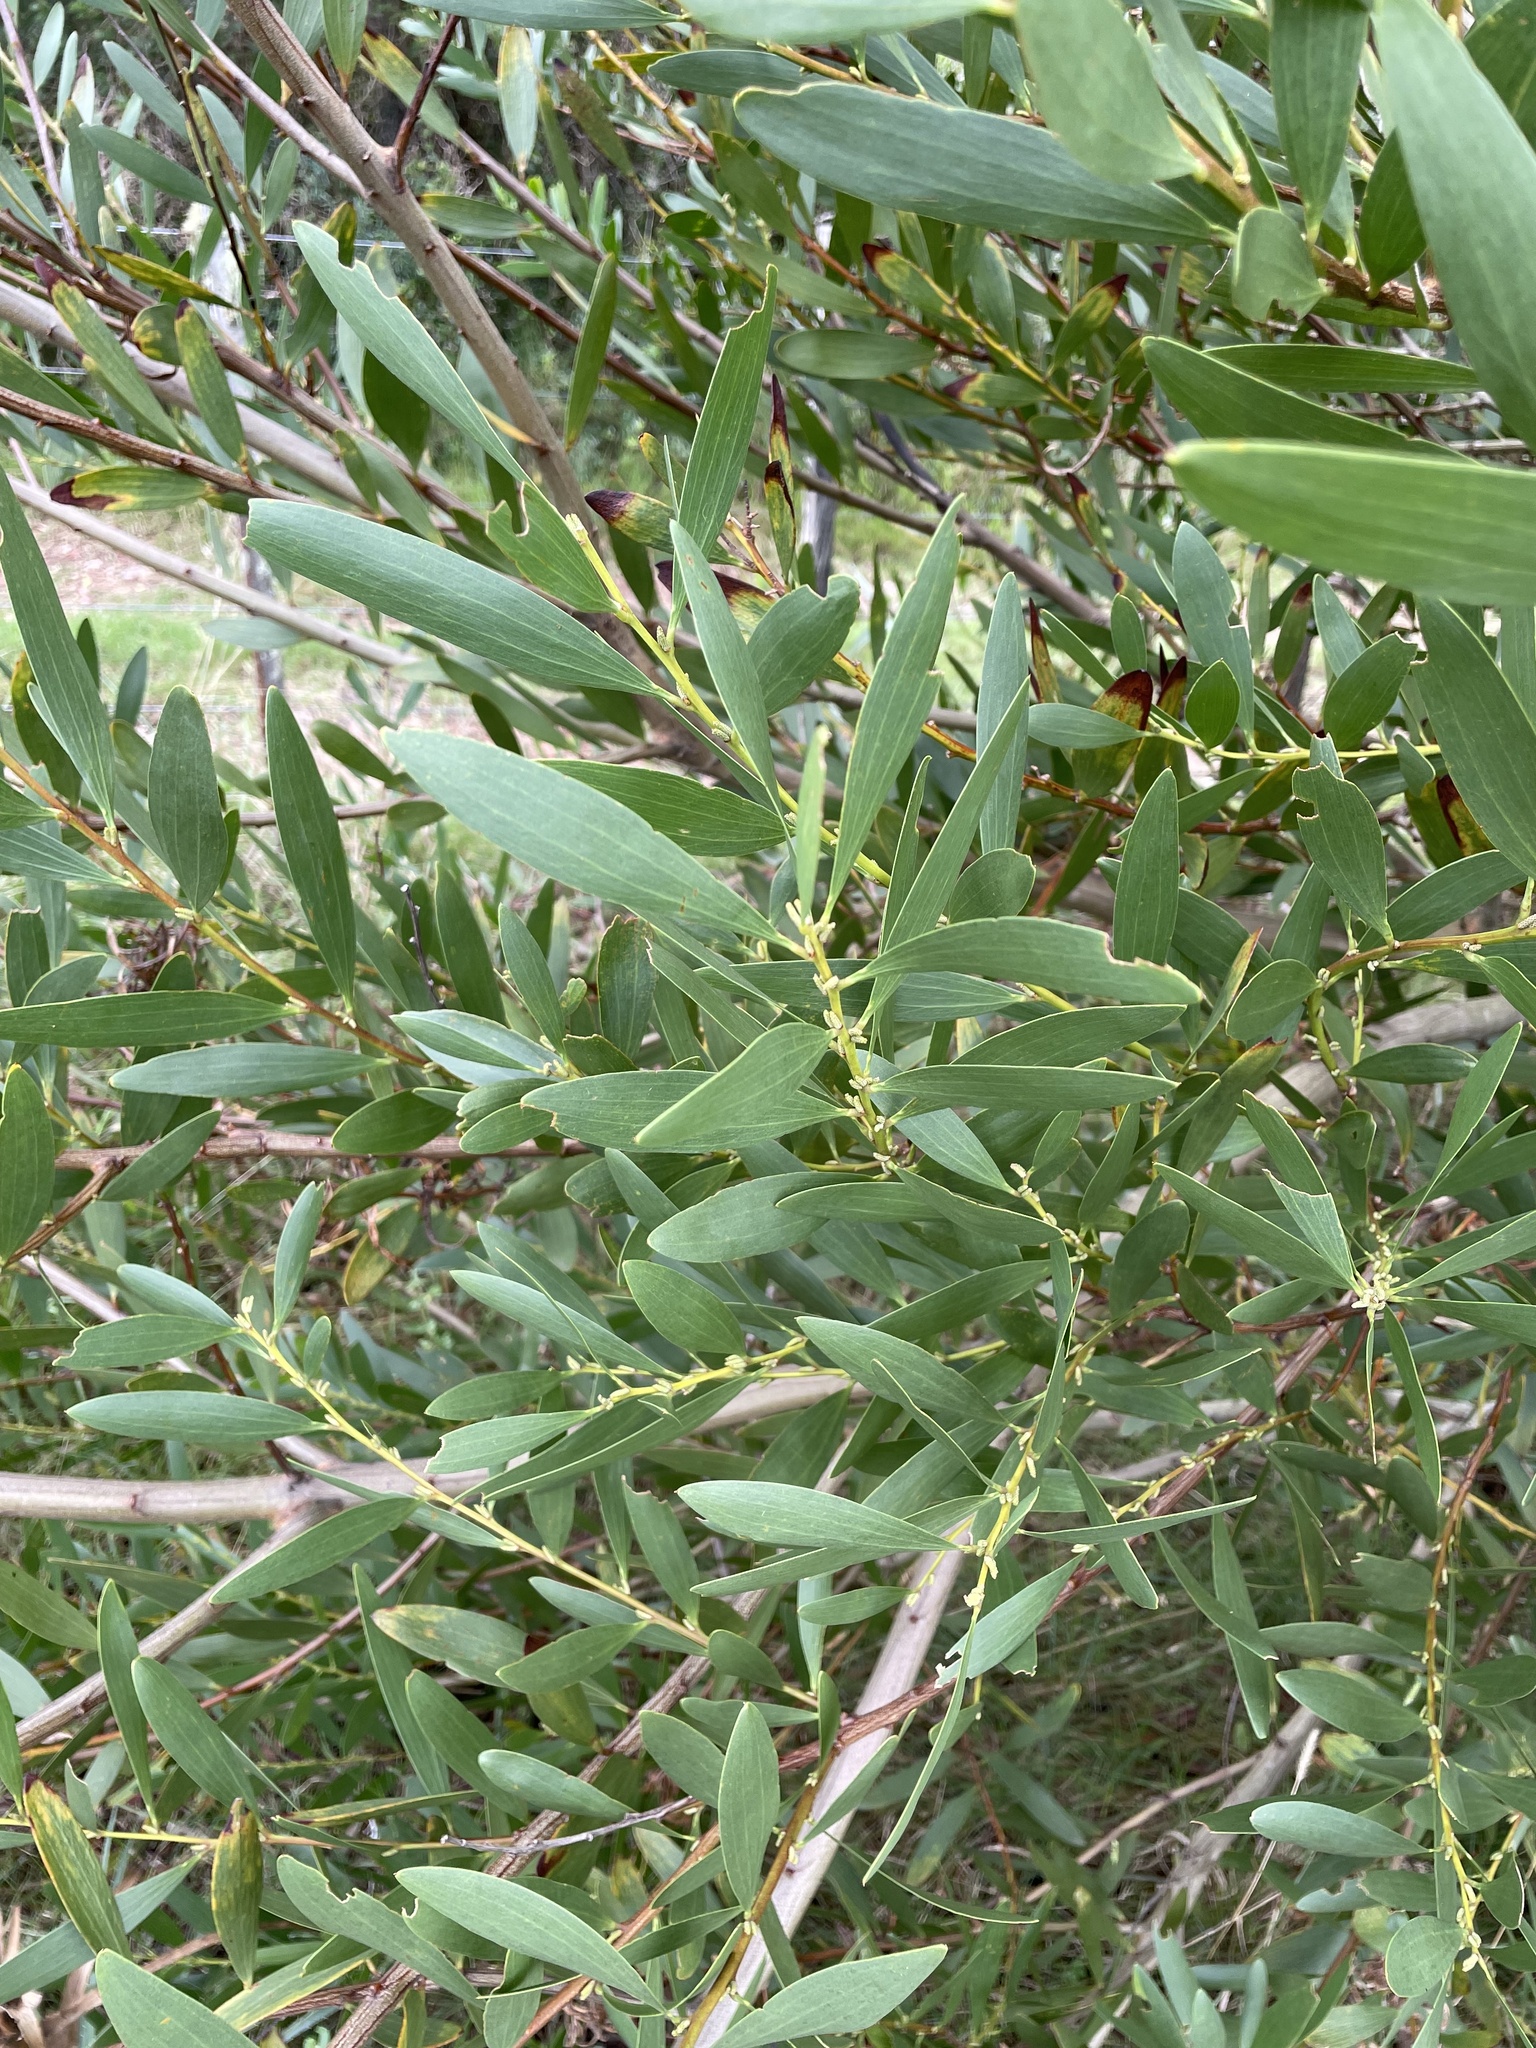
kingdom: Plantae
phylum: Tracheophyta
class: Magnoliopsida
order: Fabales
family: Fabaceae
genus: Acacia
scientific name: Acacia longifolia
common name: Sydney golden wattle
